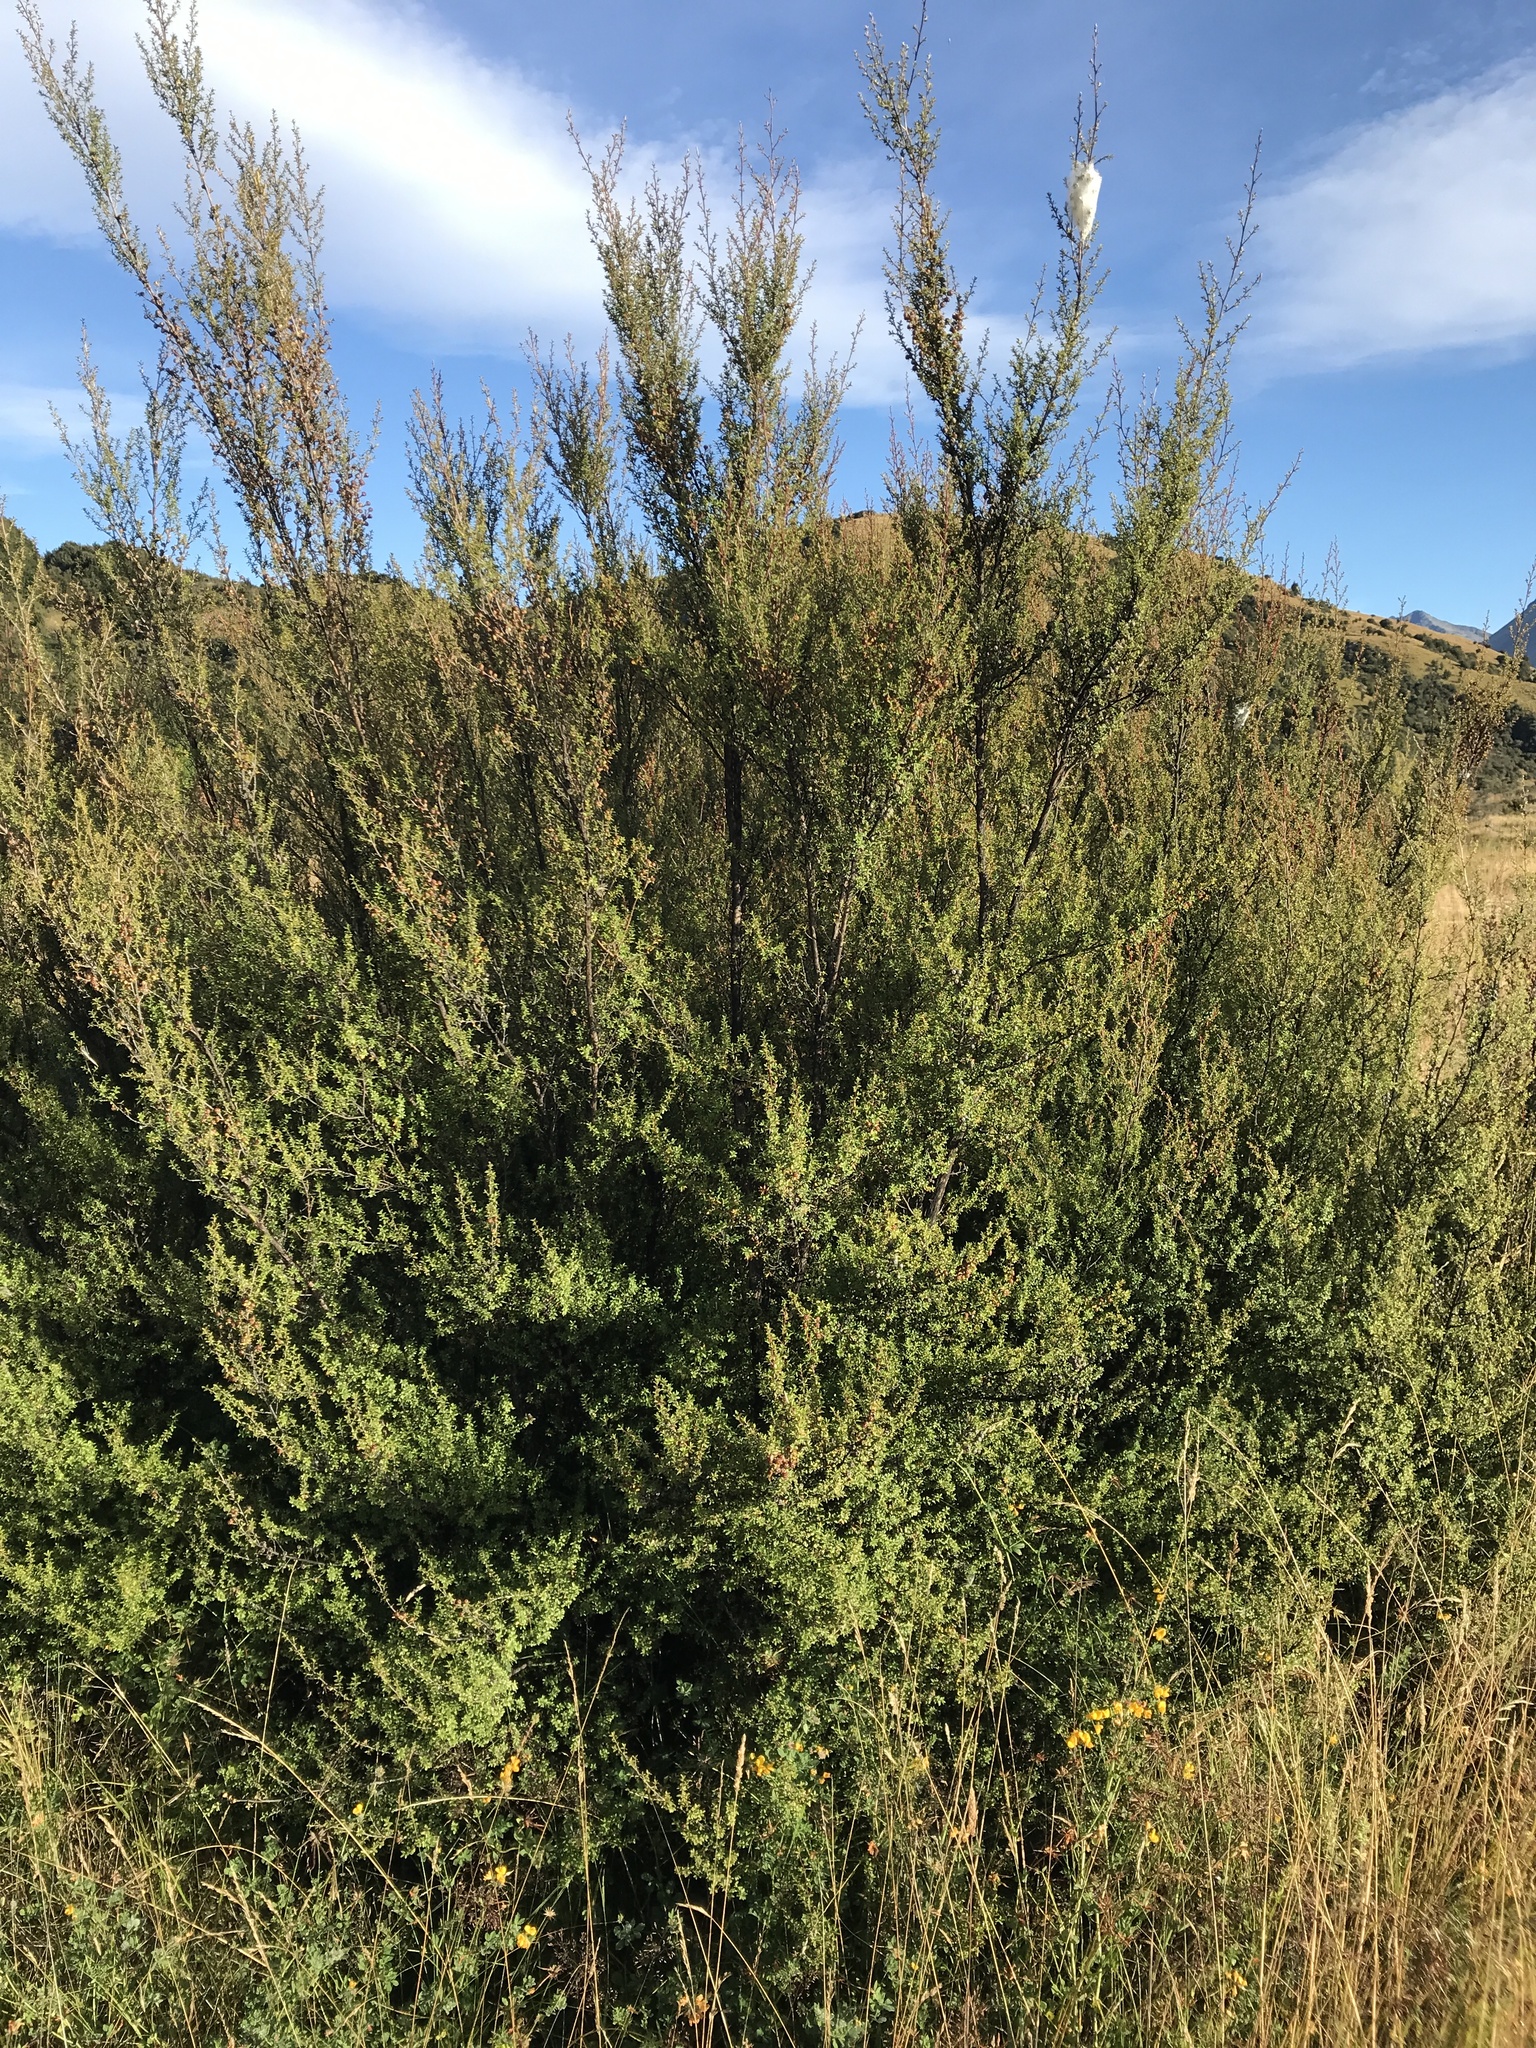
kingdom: Plantae
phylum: Tracheophyta
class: Magnoliopsida
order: Myrtales
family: Myrtaceae
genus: Leptospermum
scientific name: Leptospermum scoparium
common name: Broom tea-tree
